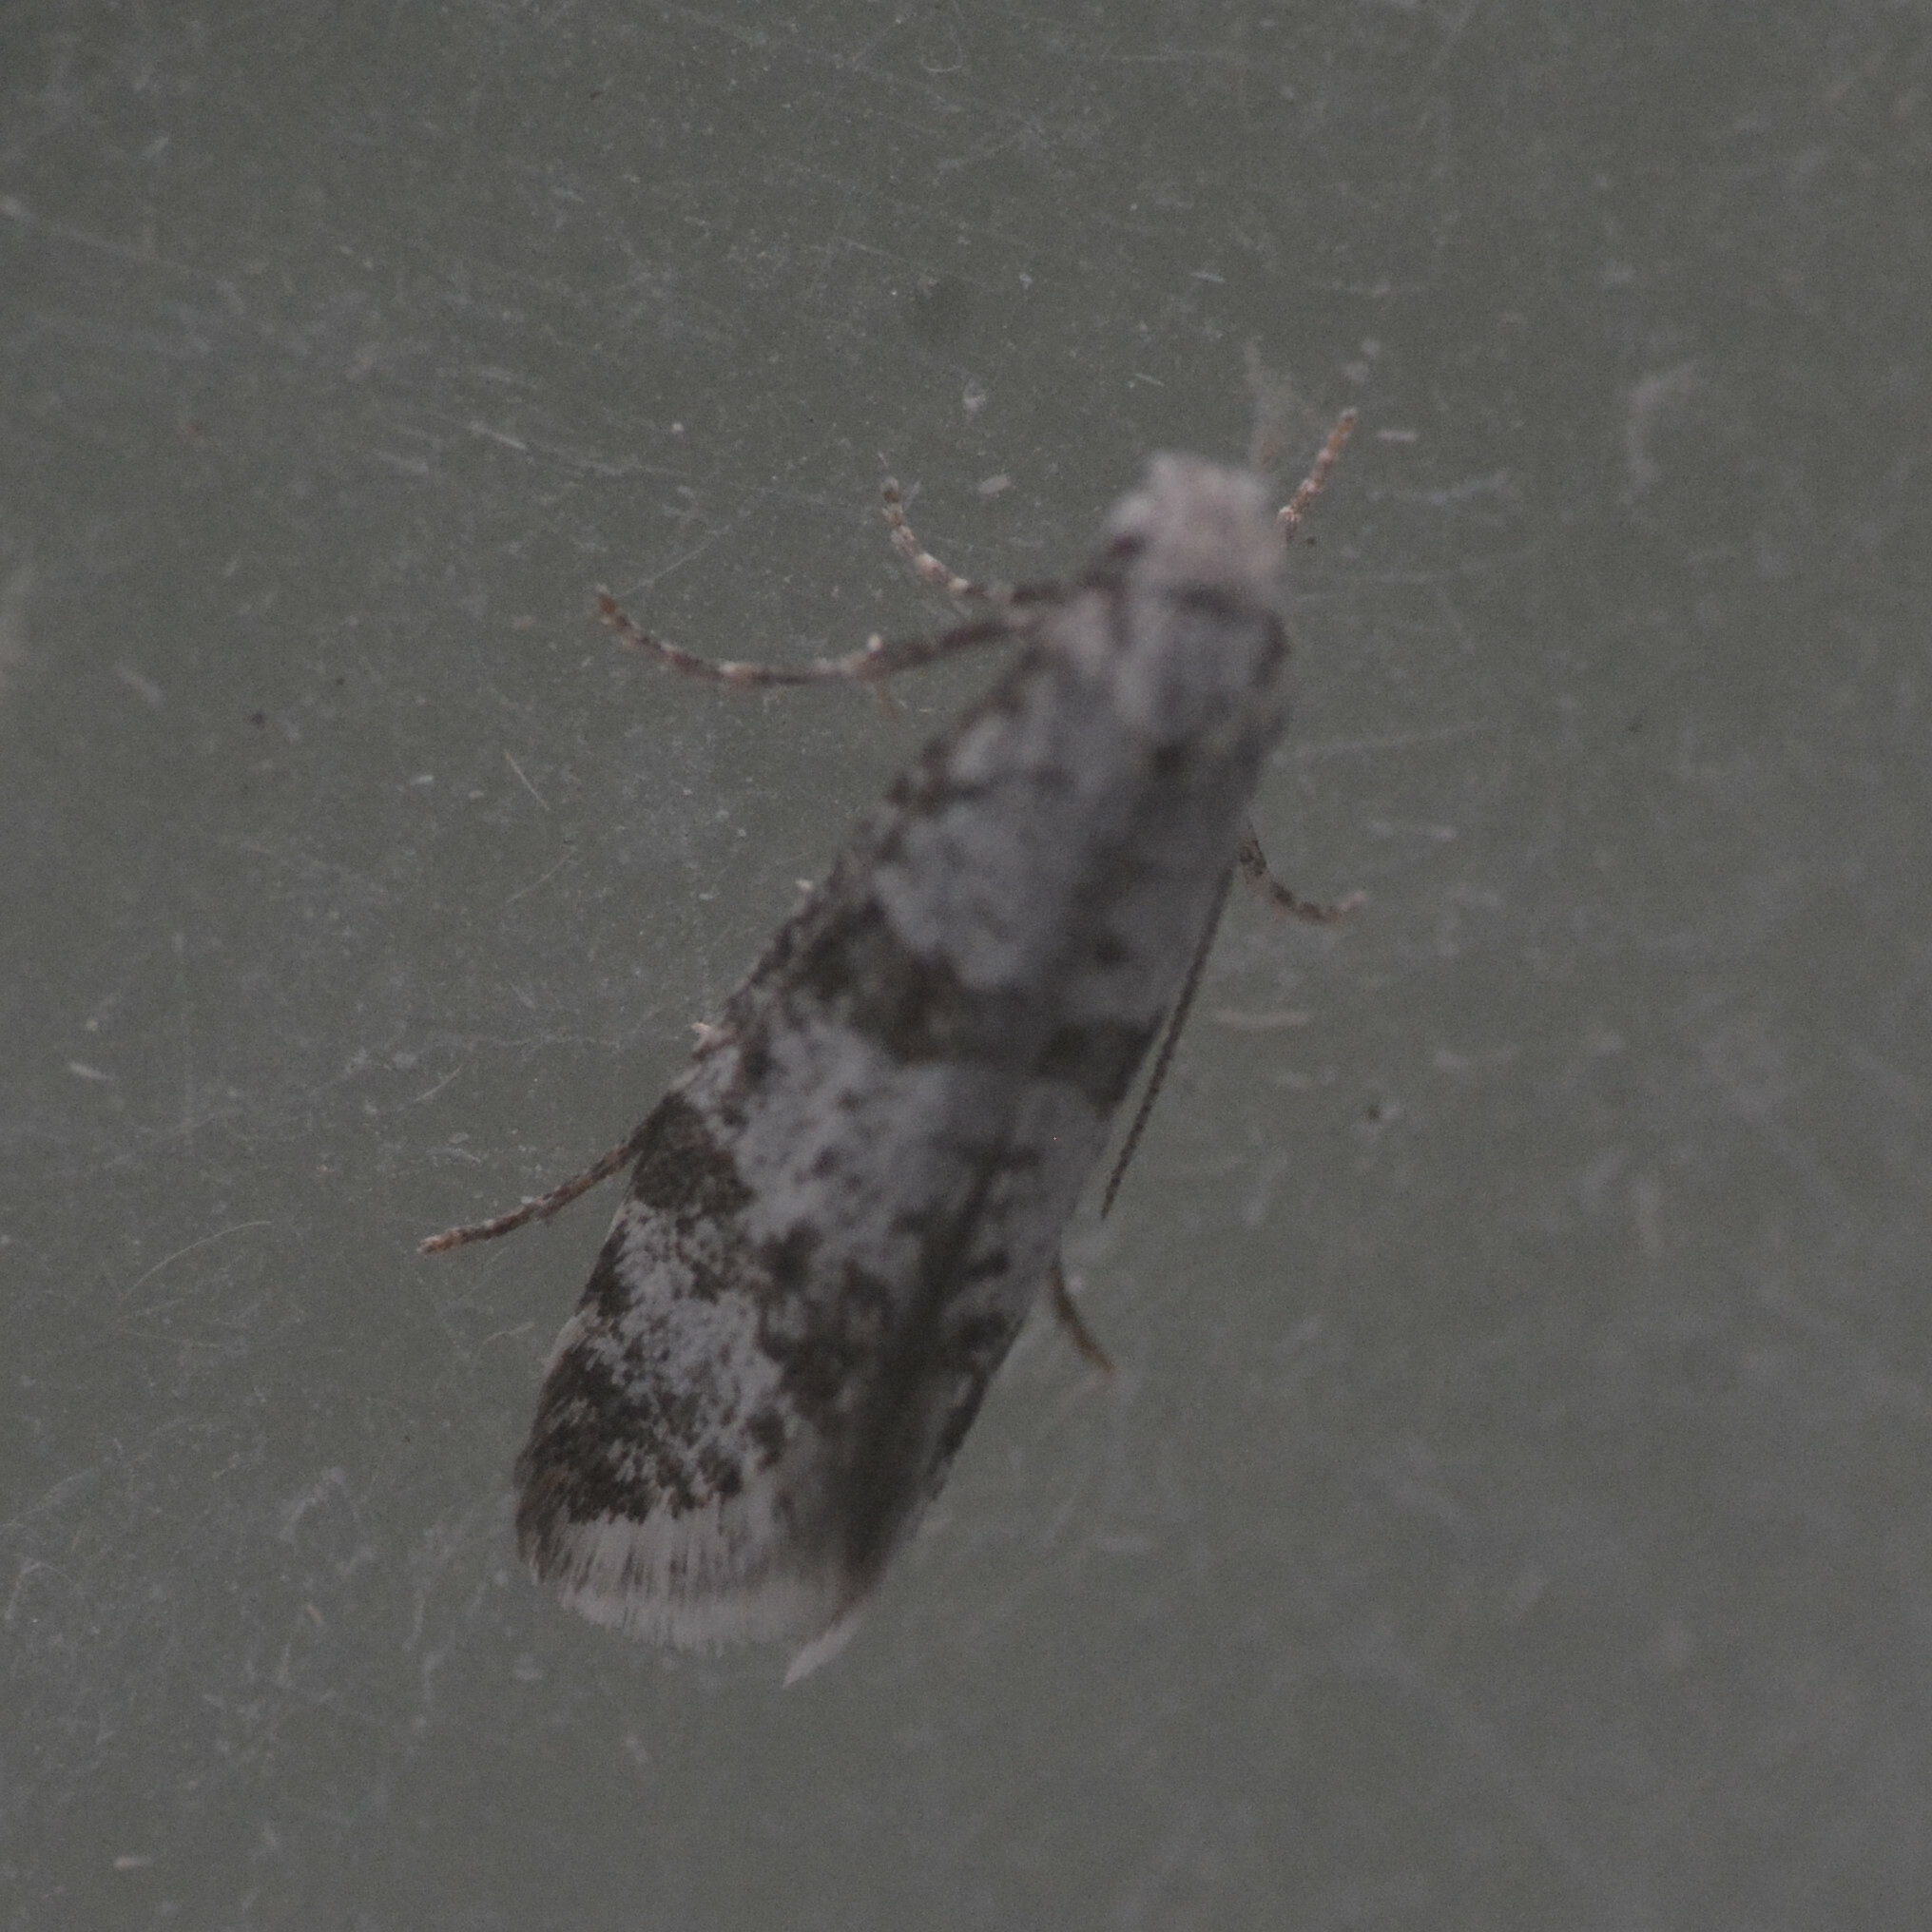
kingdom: Animalia
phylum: Arthropoda
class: Insecta
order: Lepidoptera
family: Yponomeutidae
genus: Scythropia
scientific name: Scythropia crataegella
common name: Hawthorn moth
